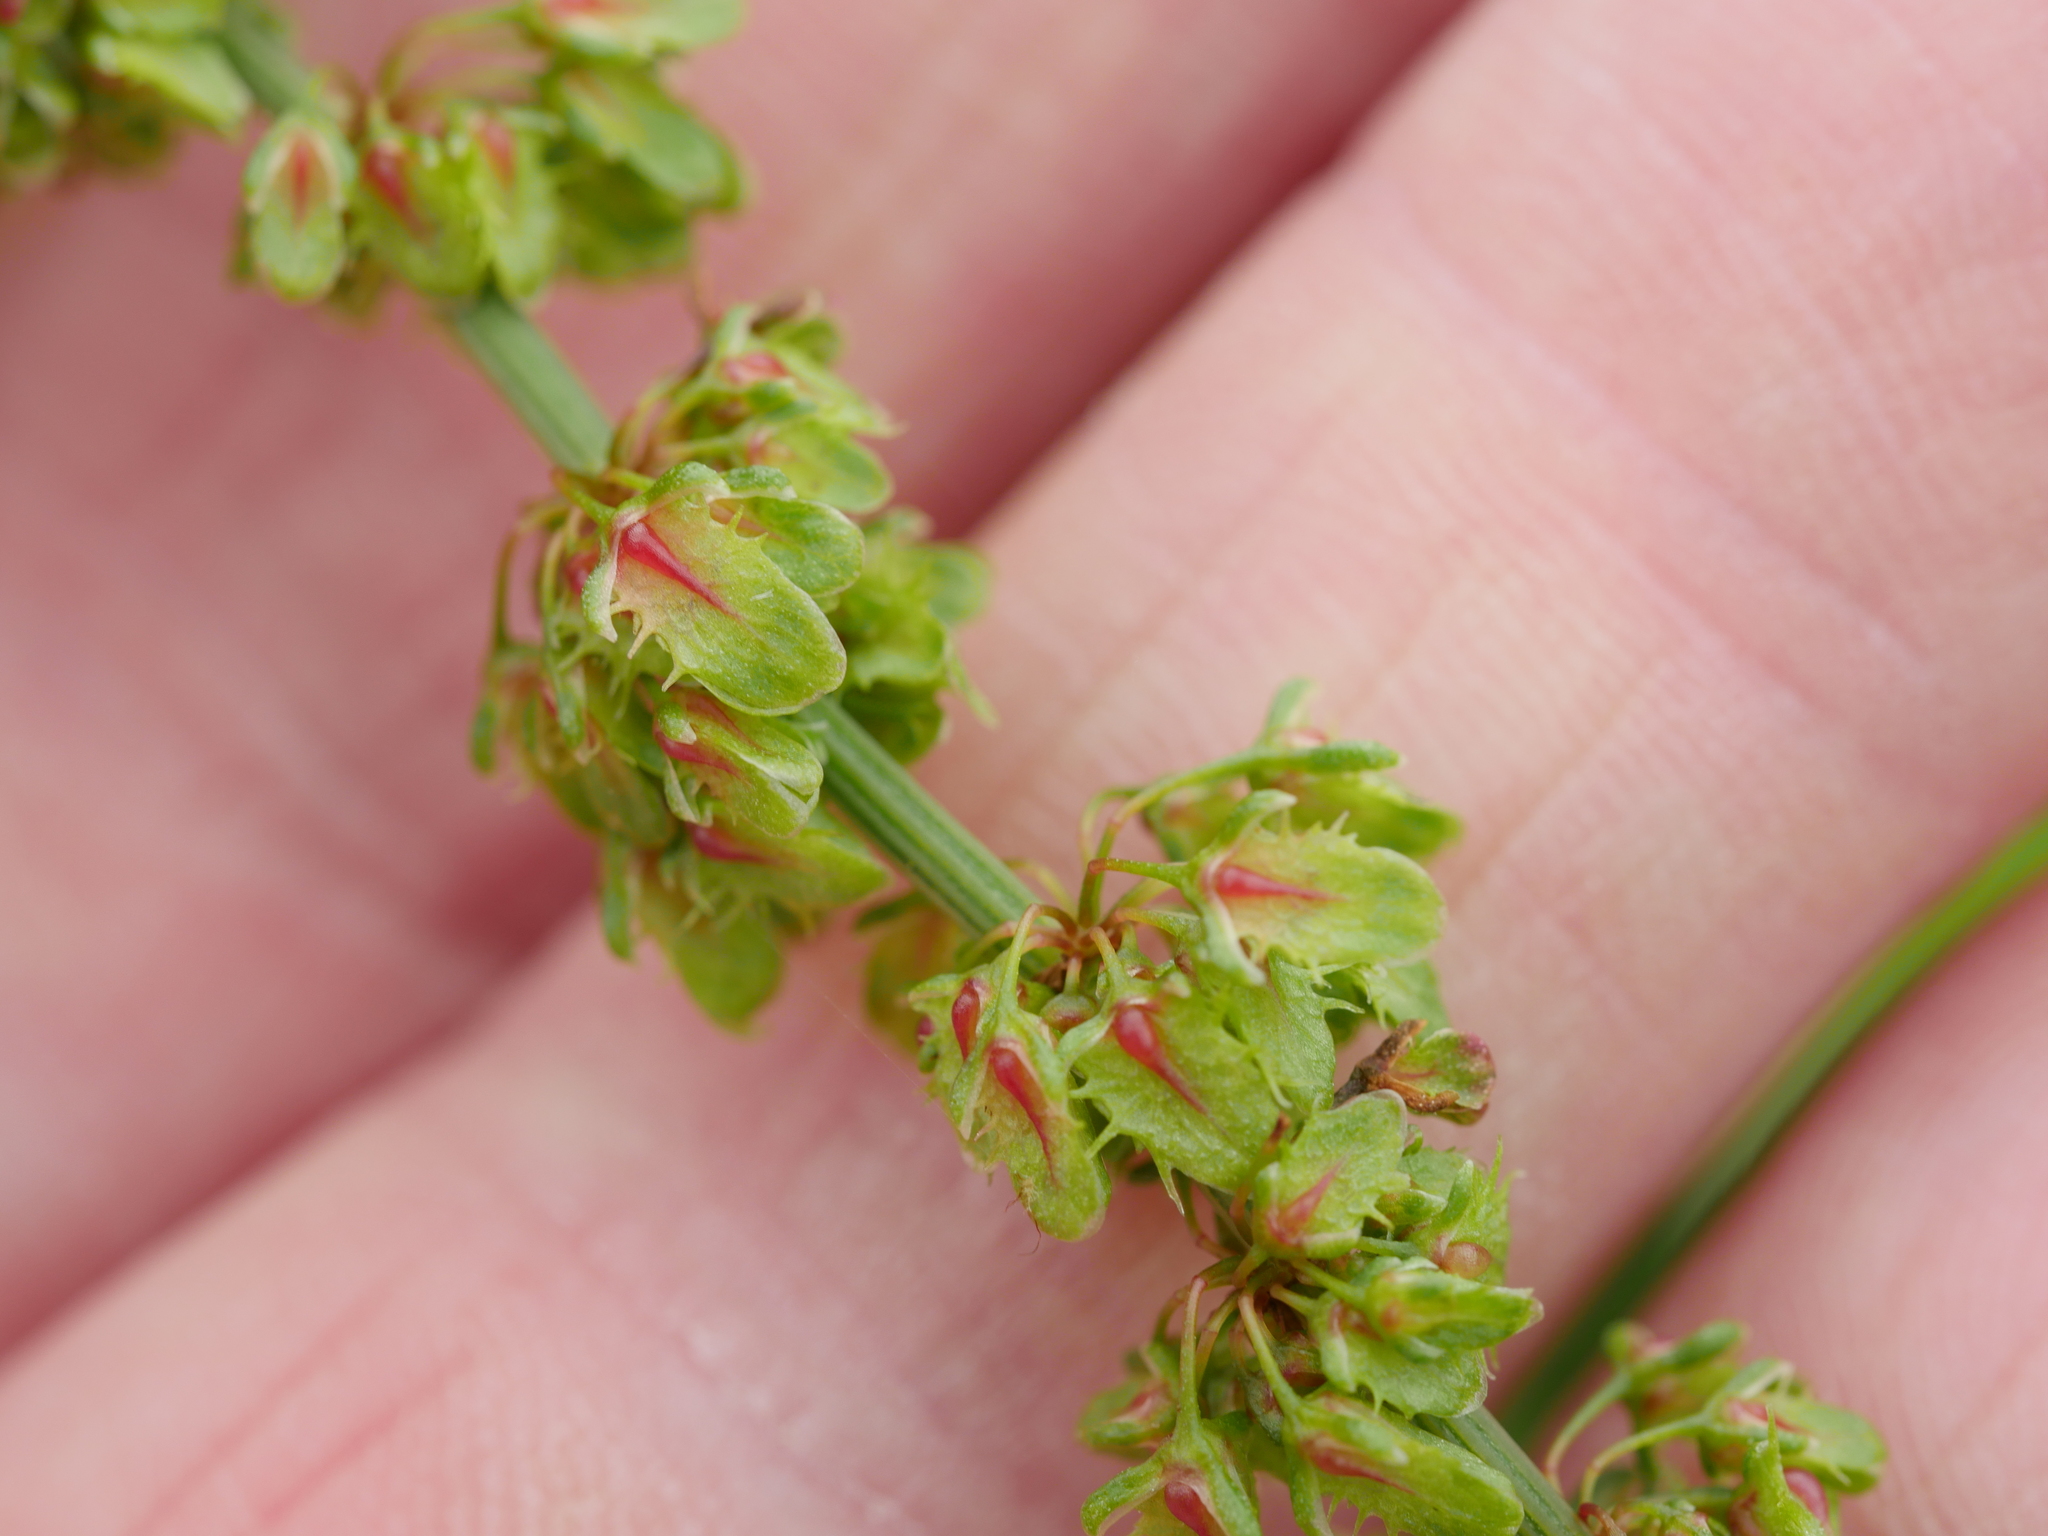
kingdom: Plantae
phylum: Tracheophyta
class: Magnoliopsida
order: Caryophyllales
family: Polygonaceae
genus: Rumex
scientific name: Rumex obtusifolius
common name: Bitter dock
